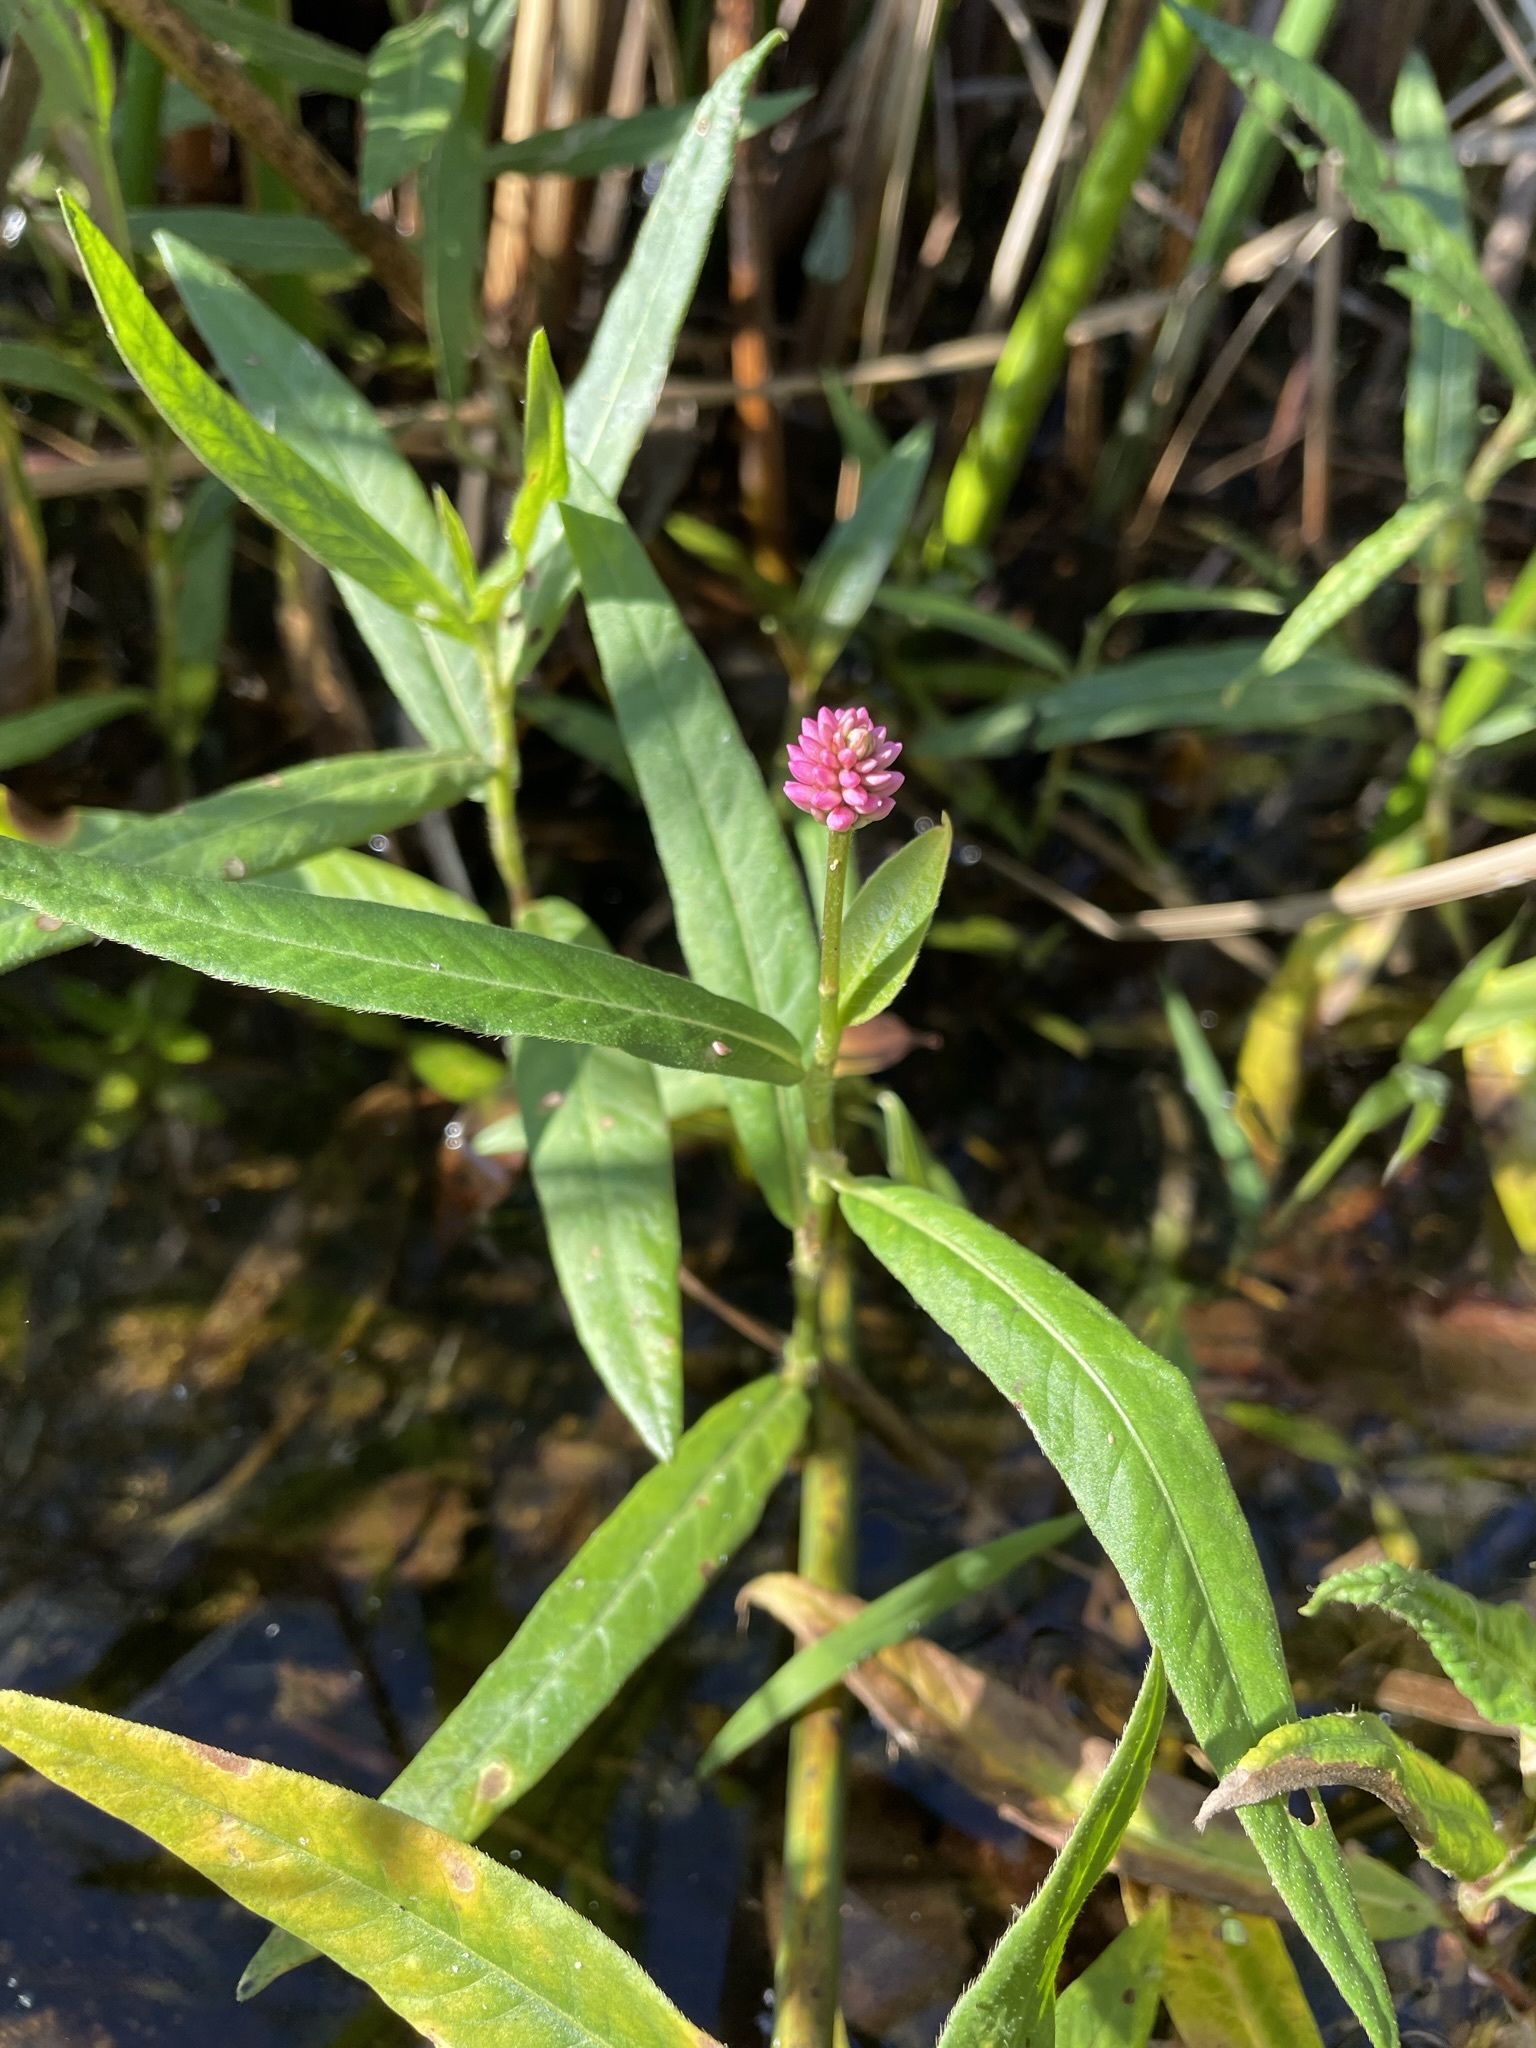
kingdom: Plantae
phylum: Tracheophyta
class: Magnoliopsida
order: Caryophyllales
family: Polygonaceae
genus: Persicaria
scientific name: Persicaria amphibia
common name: Amphibious bistort
